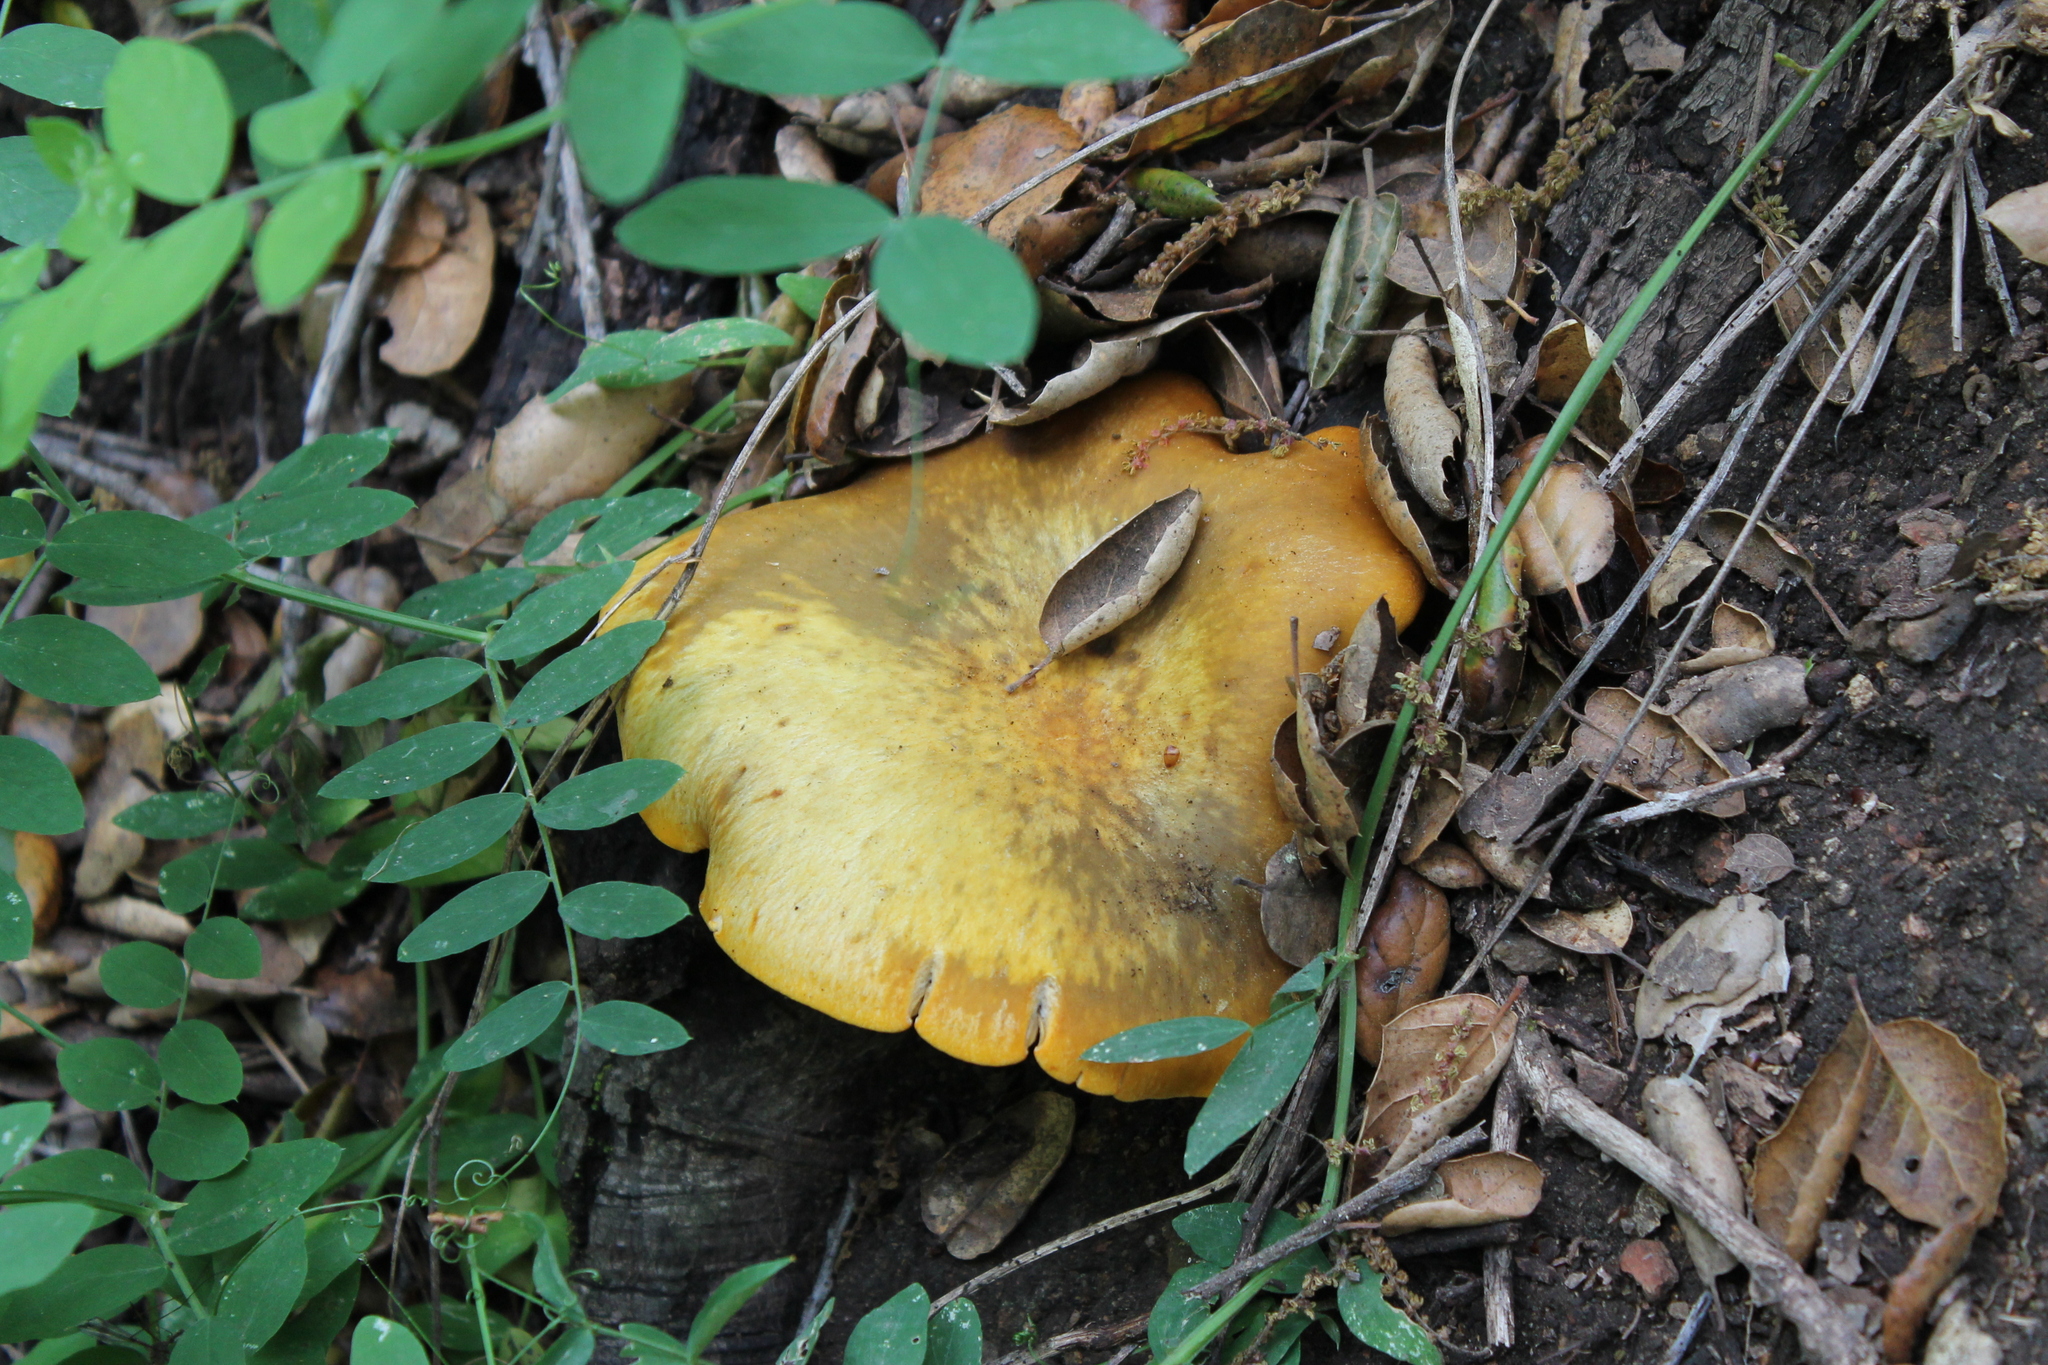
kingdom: Fungi
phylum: Basidiomycota
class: Agaricomycetes
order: Agaricales
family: Omphalotaceae
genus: Omphalotus
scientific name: Omphalotus olivascens
